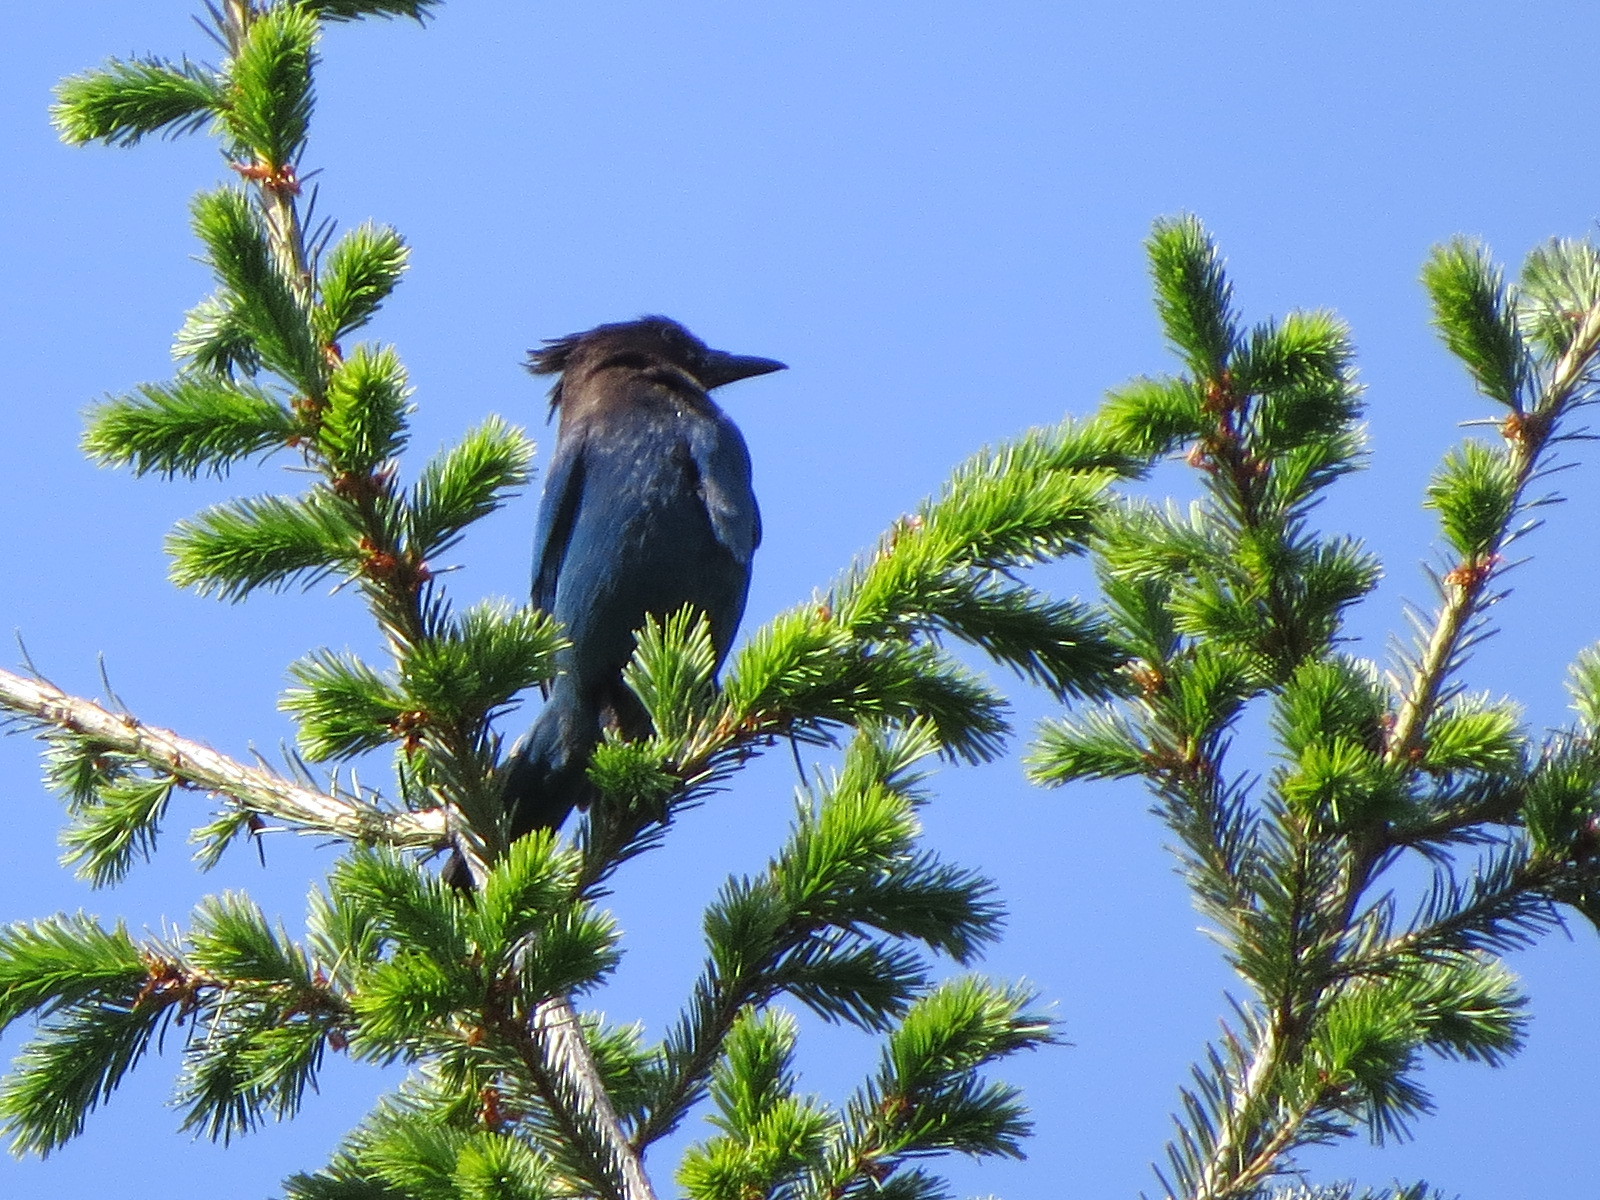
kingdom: Animalia
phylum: Chordata
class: Aves
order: Passeriformes
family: Corvidae
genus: Cyanocitta
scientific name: Cyanocitta stelleri
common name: Steller's jay
